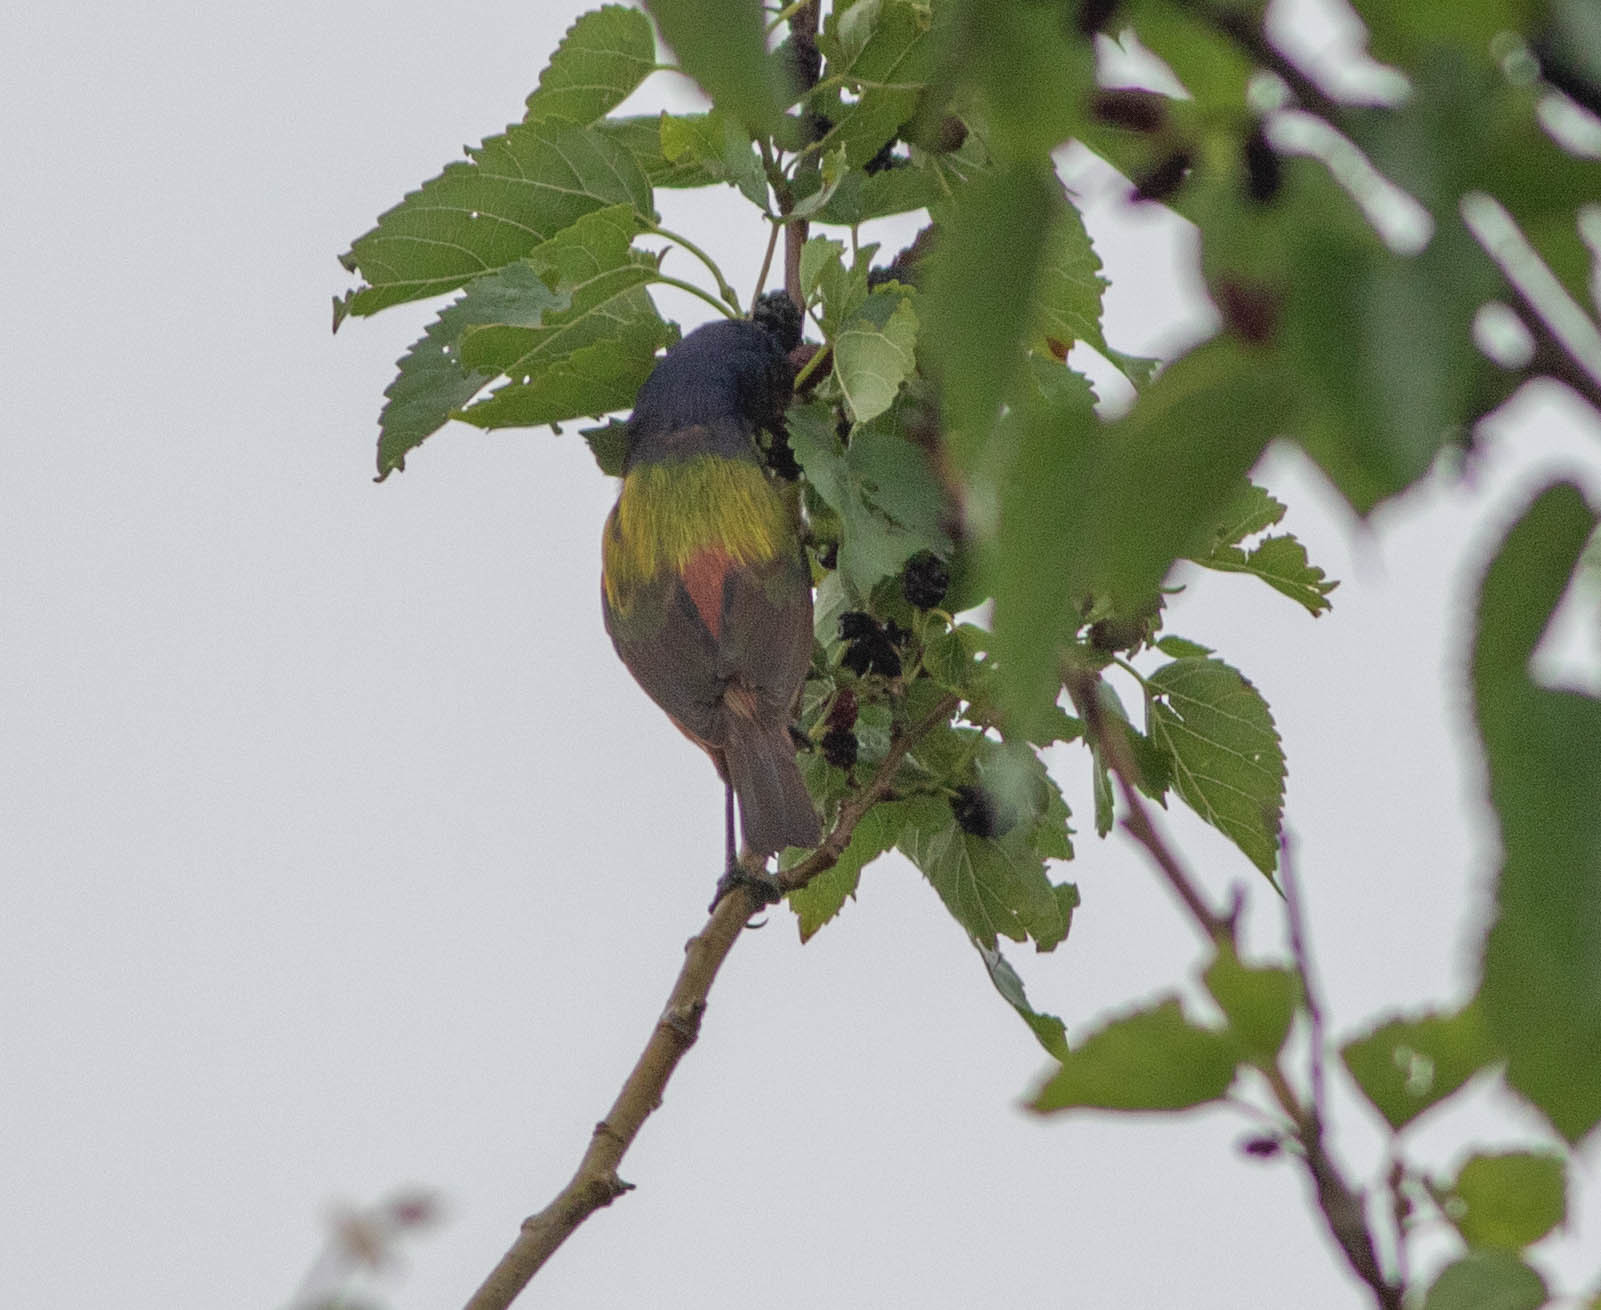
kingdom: Animalia
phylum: Chordata
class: Aves
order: Passeriformes
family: Cardinalidae
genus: Passerina
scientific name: Passerina ciris
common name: Painted bunting
